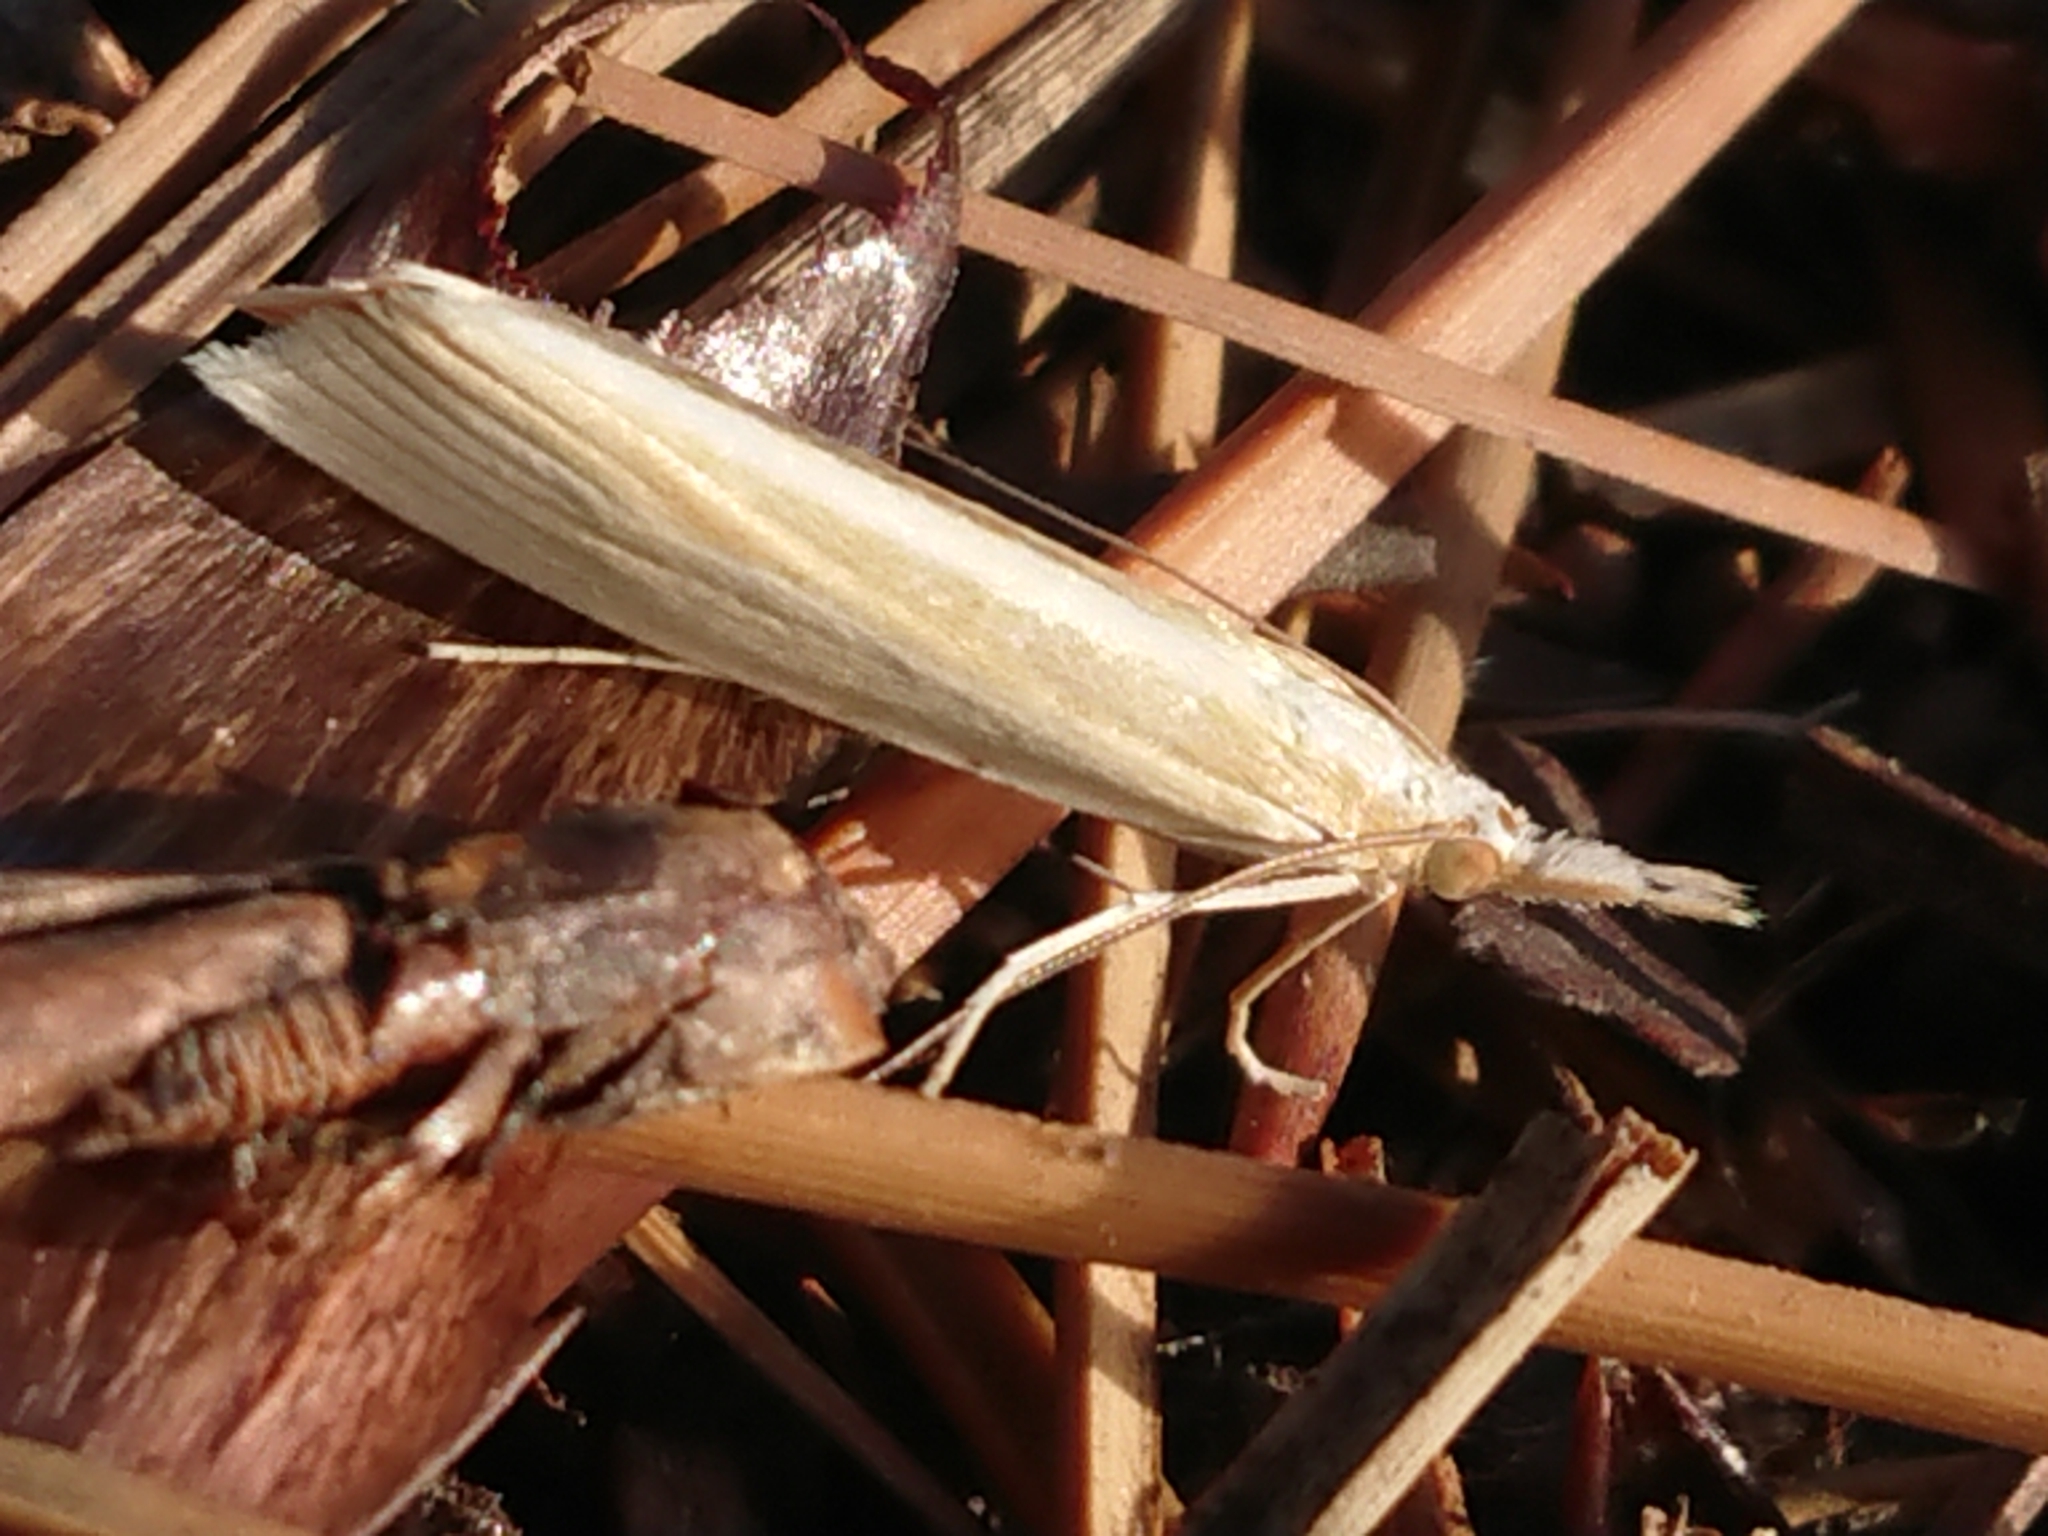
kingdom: Animalia
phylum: Arthropoda
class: Insecta
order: Lepidoptera
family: Crambidae
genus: Orocrambus
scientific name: Orocrambus angustipennis
